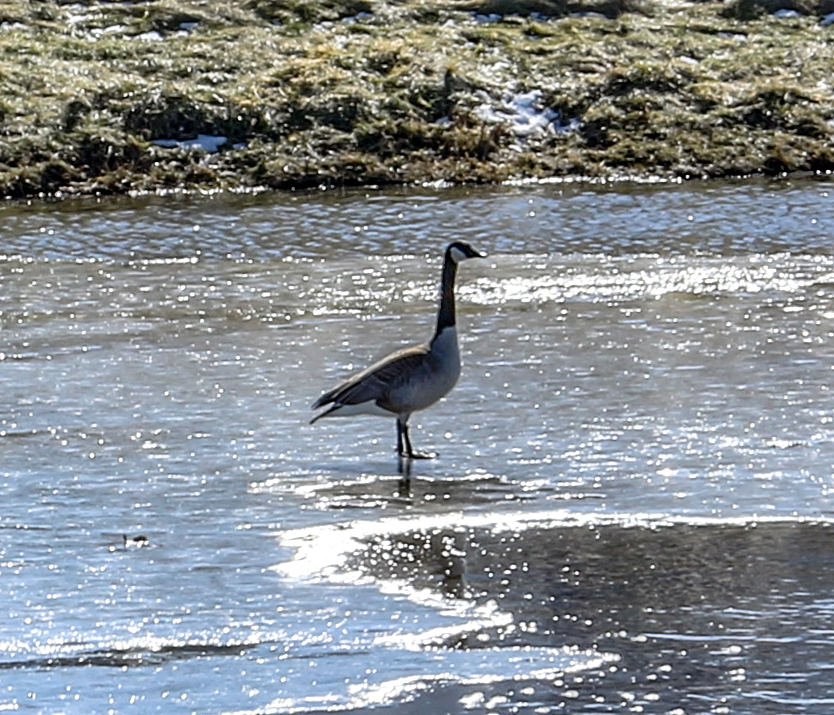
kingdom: Animalia
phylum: Chordata
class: Aves
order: Anseriformes
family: Anatidae
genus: Branta
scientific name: Branta canadensis
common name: Canada goose
